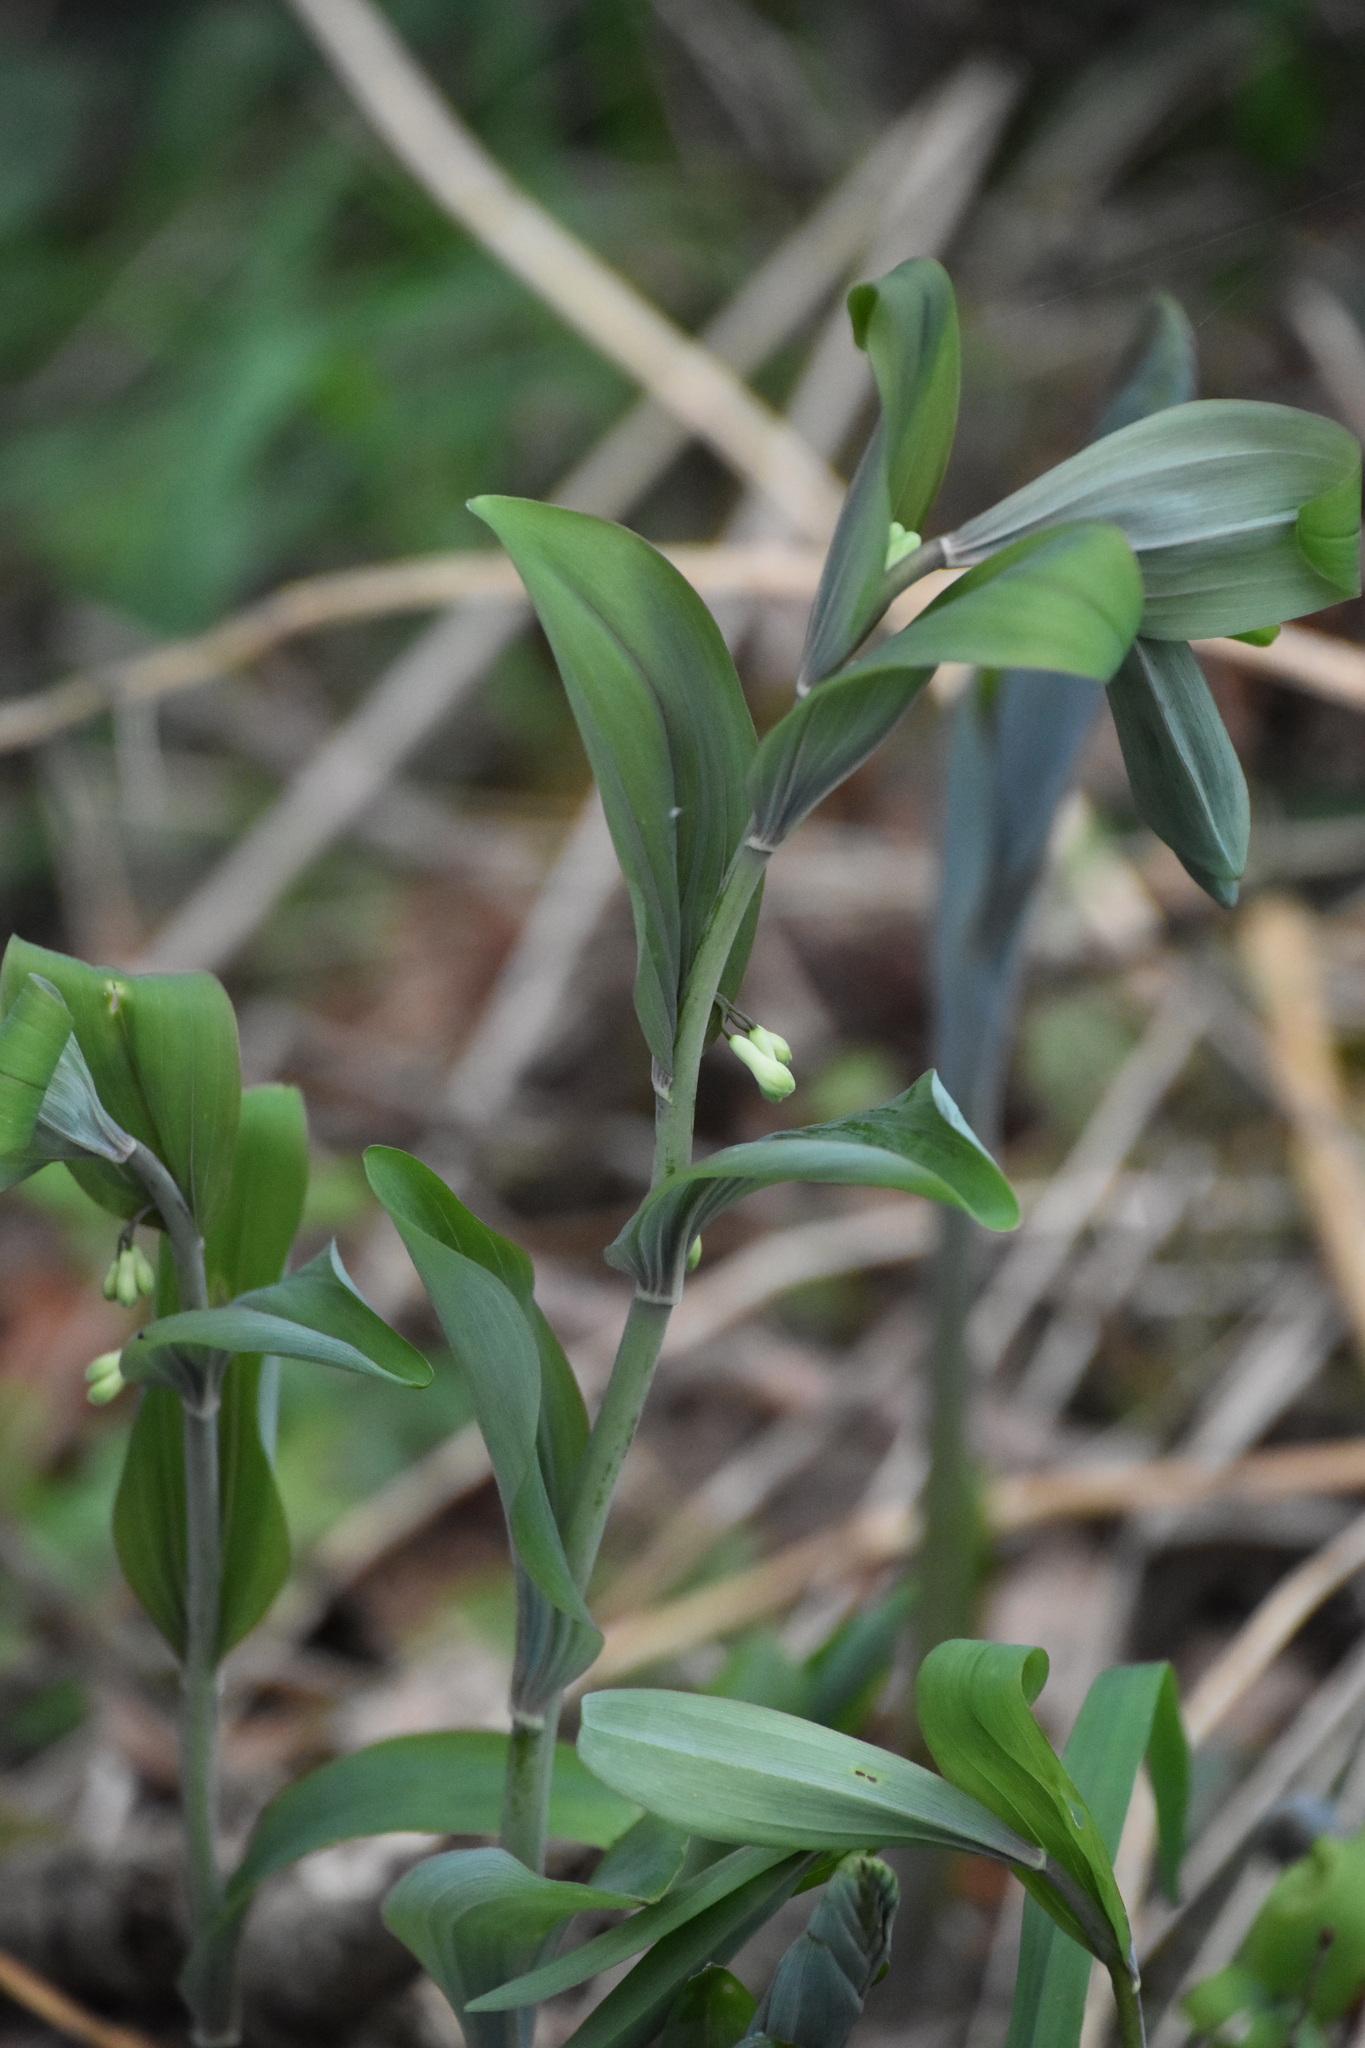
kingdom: Plantae
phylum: Tracheophyta
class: Liliopsida
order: Asparagales
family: Asparagaceae
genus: Polygonatum
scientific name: Polygonatum multiflorum
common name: Solomon's-seal
